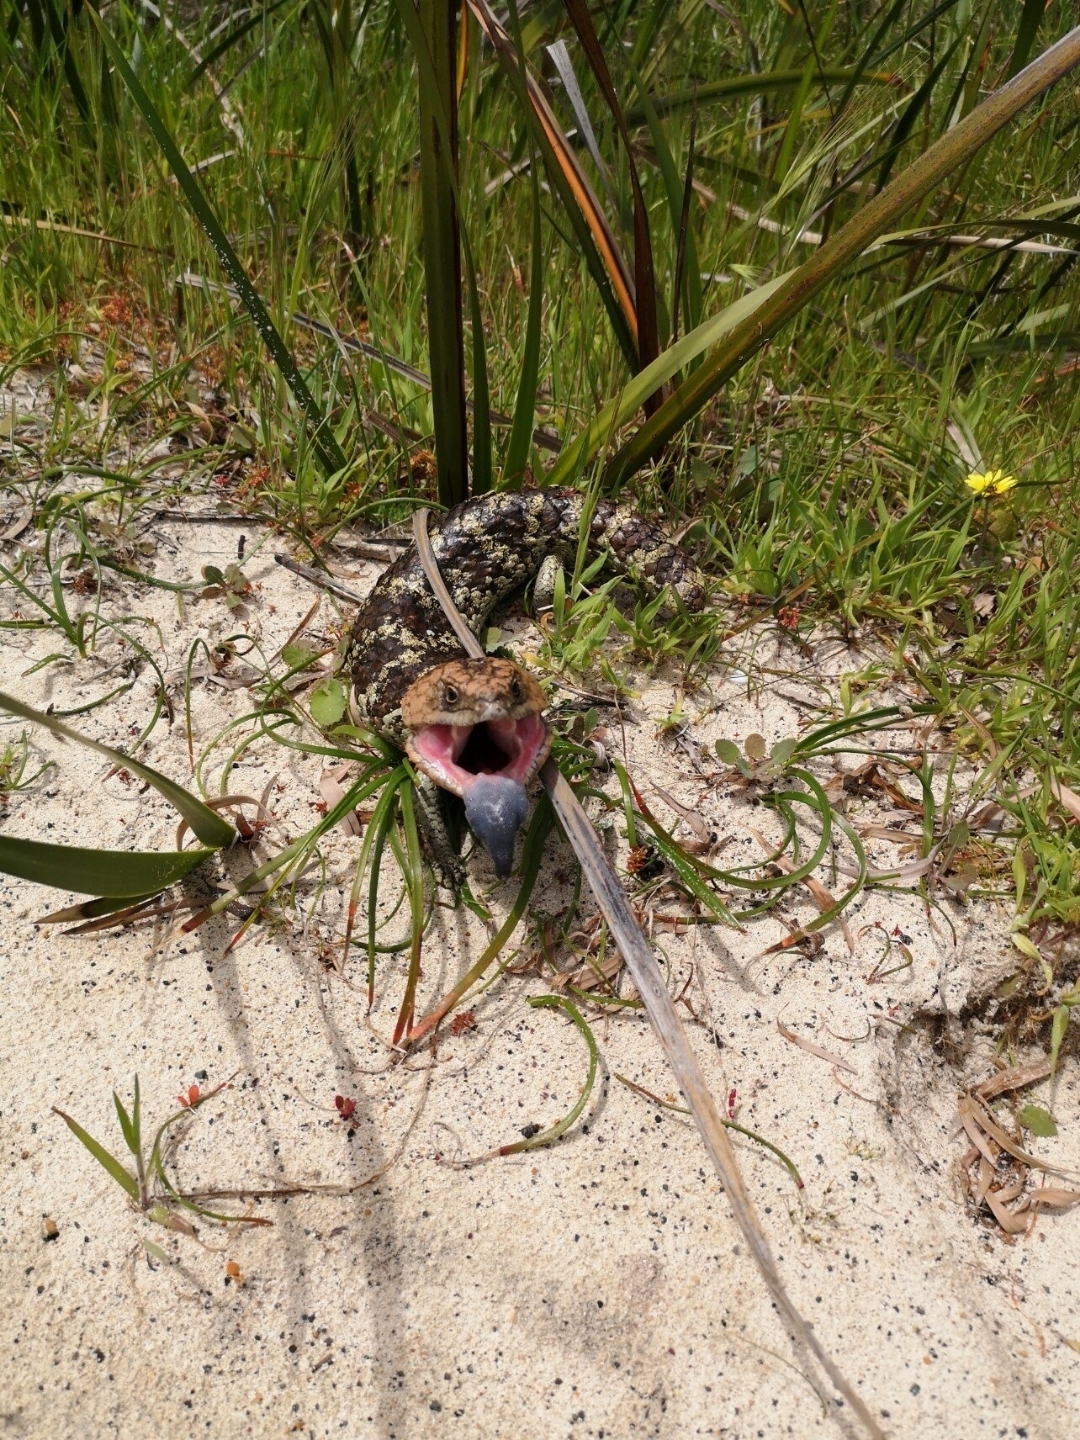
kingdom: Animalia
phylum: Chordata
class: Squamata
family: Scincidae
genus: Tiliqua
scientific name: Tiliqua rugosa
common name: Pinecone lizard
